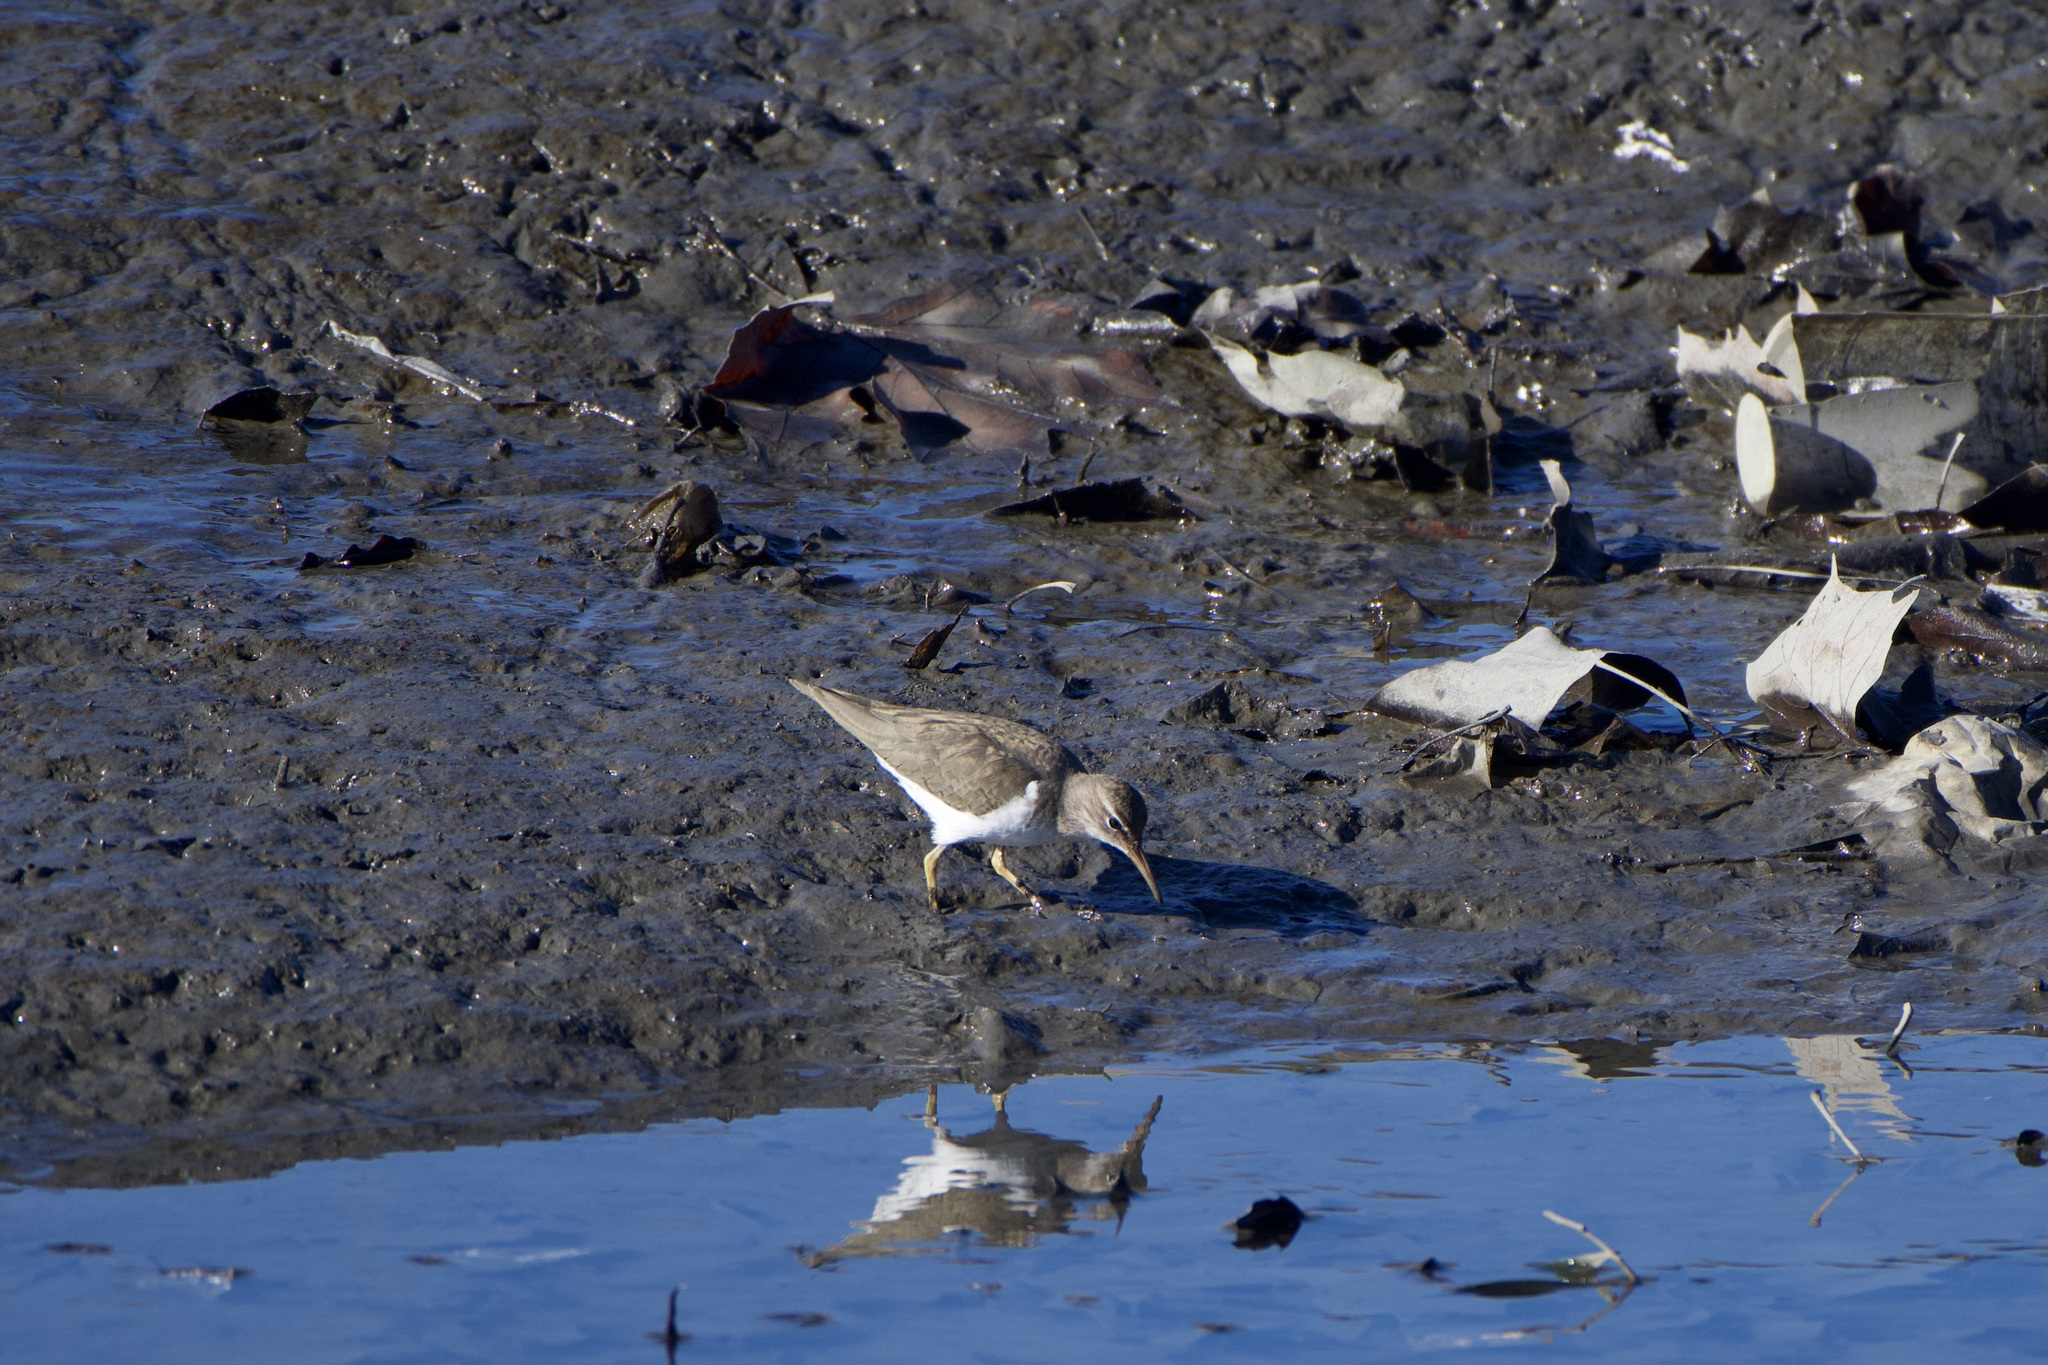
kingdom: Animalia
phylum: Chordata
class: Aves
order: Charadriiformes
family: Scolopacidae
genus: Actitis
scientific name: Actitis macularius
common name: Spotted sandpiper
